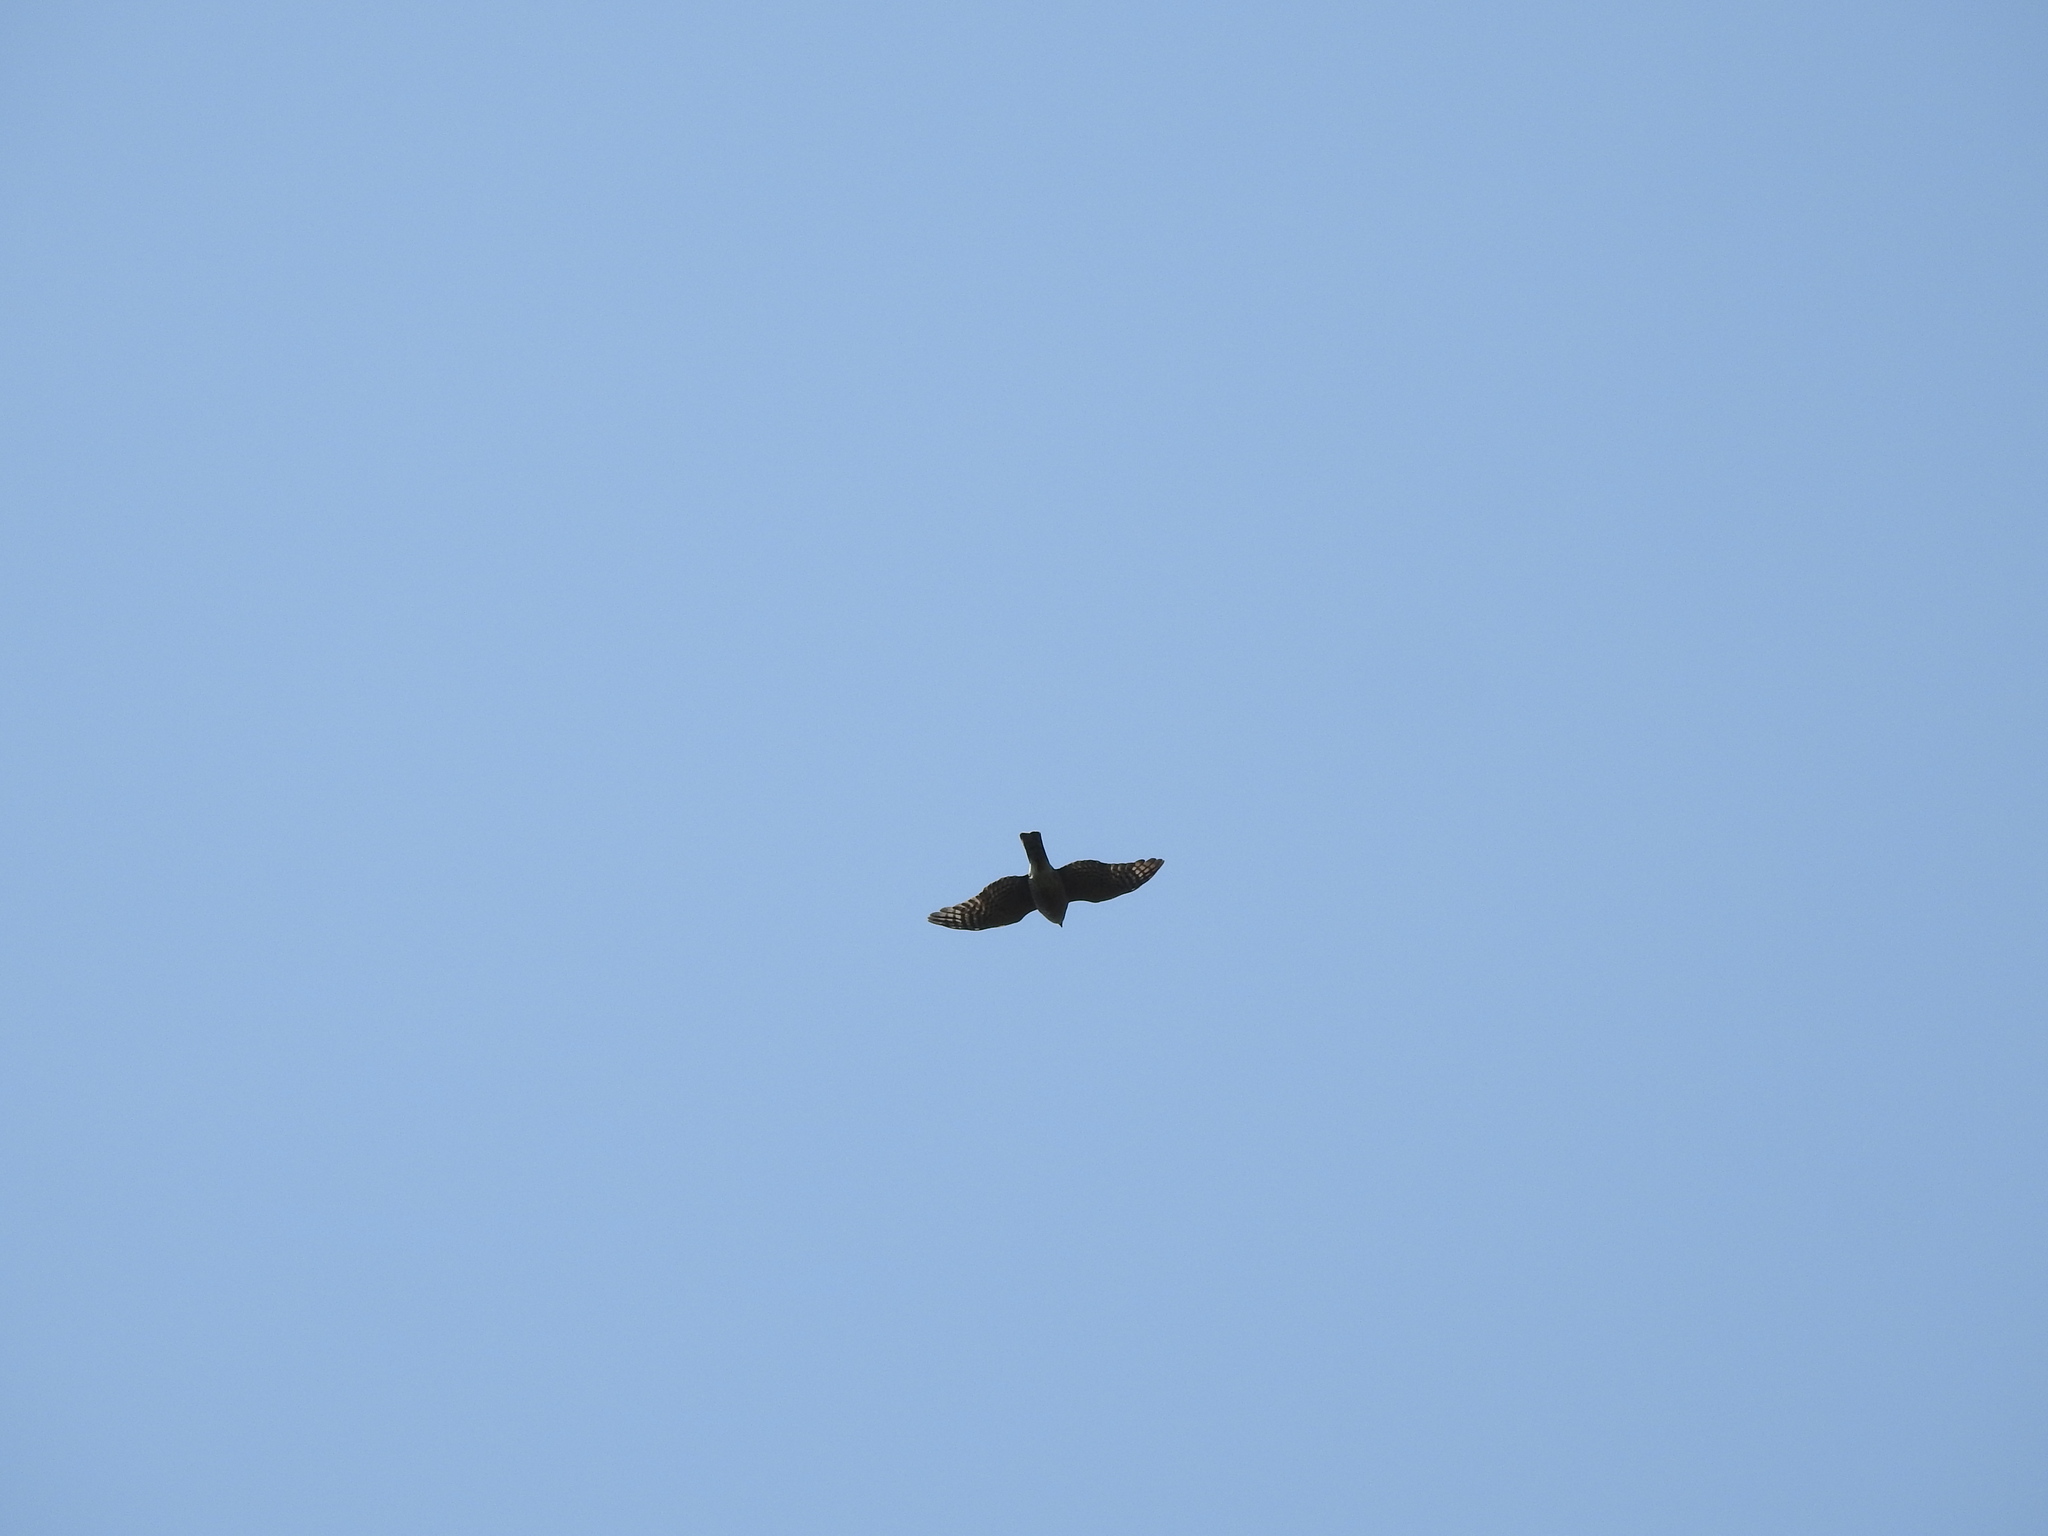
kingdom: Animalia
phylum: Chordata
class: Aves
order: Accipitriformes
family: Accipitridae
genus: Accipiter
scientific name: Accipiter striatus
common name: Sharp-shinned hawk
